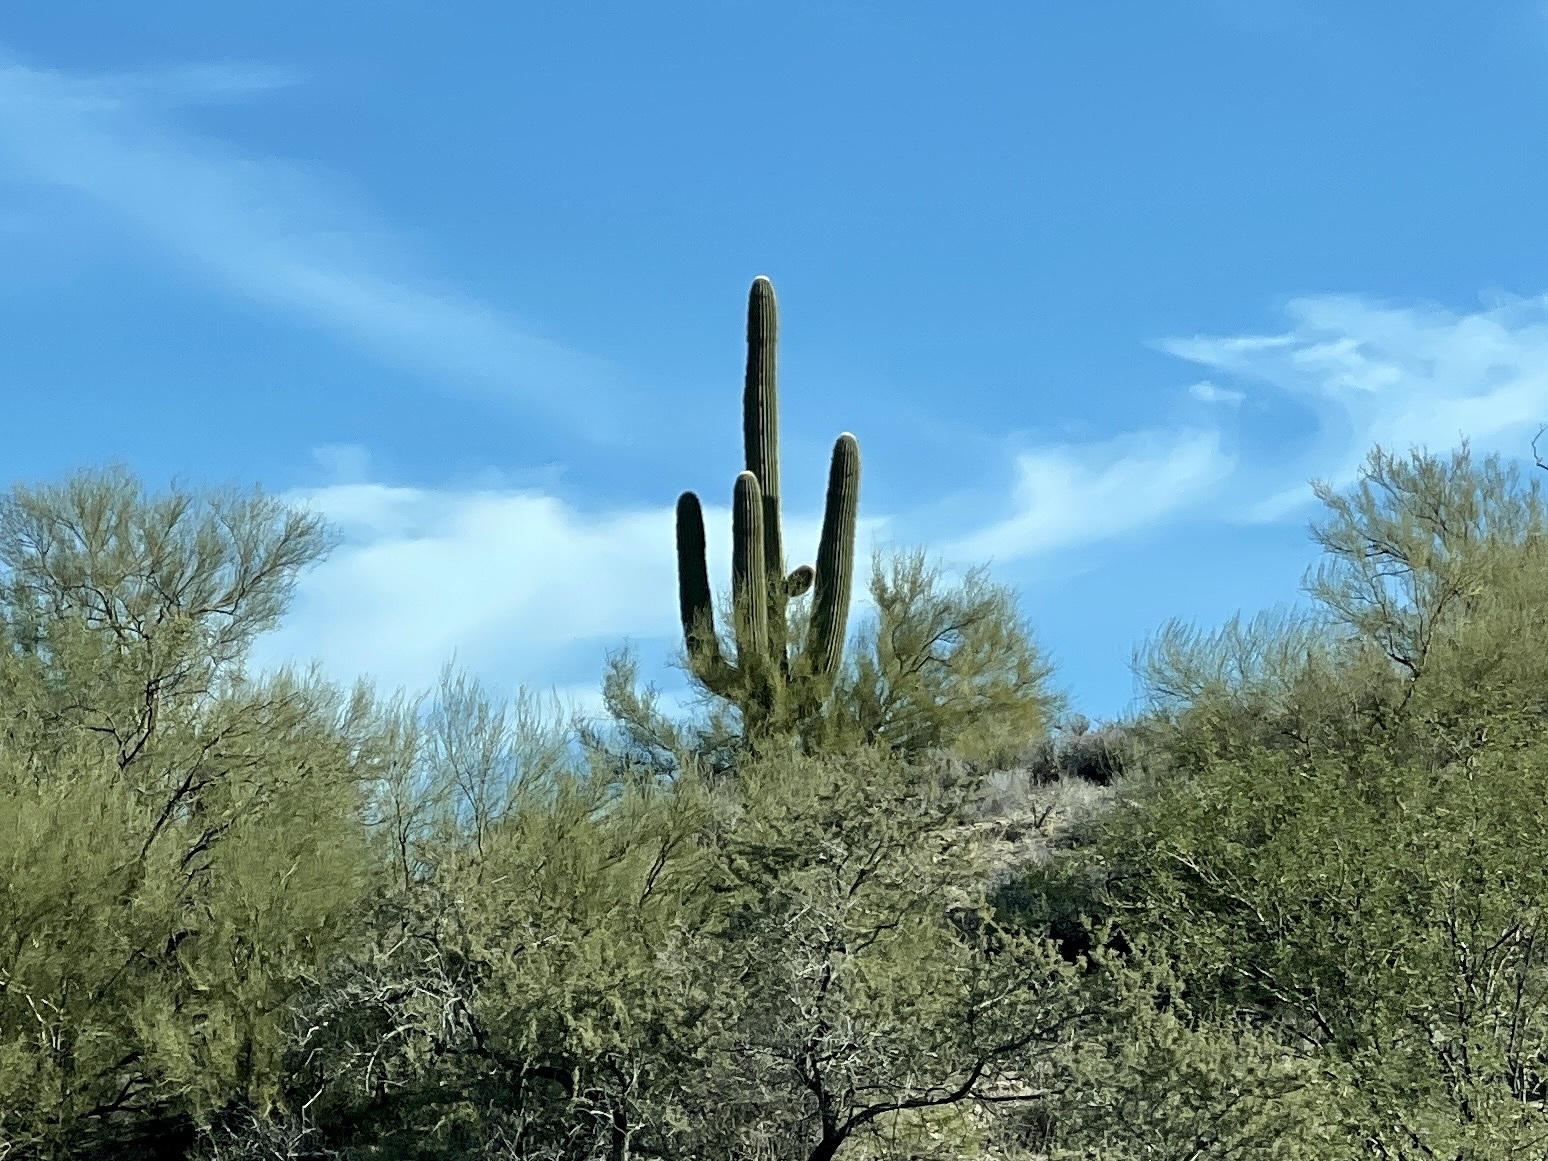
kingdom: Plantae
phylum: Tracheophyta
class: Magnoliopsida
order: Caryophyllales
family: Cactaceae
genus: Carnegiea
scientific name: Carnegiea gigantea
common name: Saguaro
